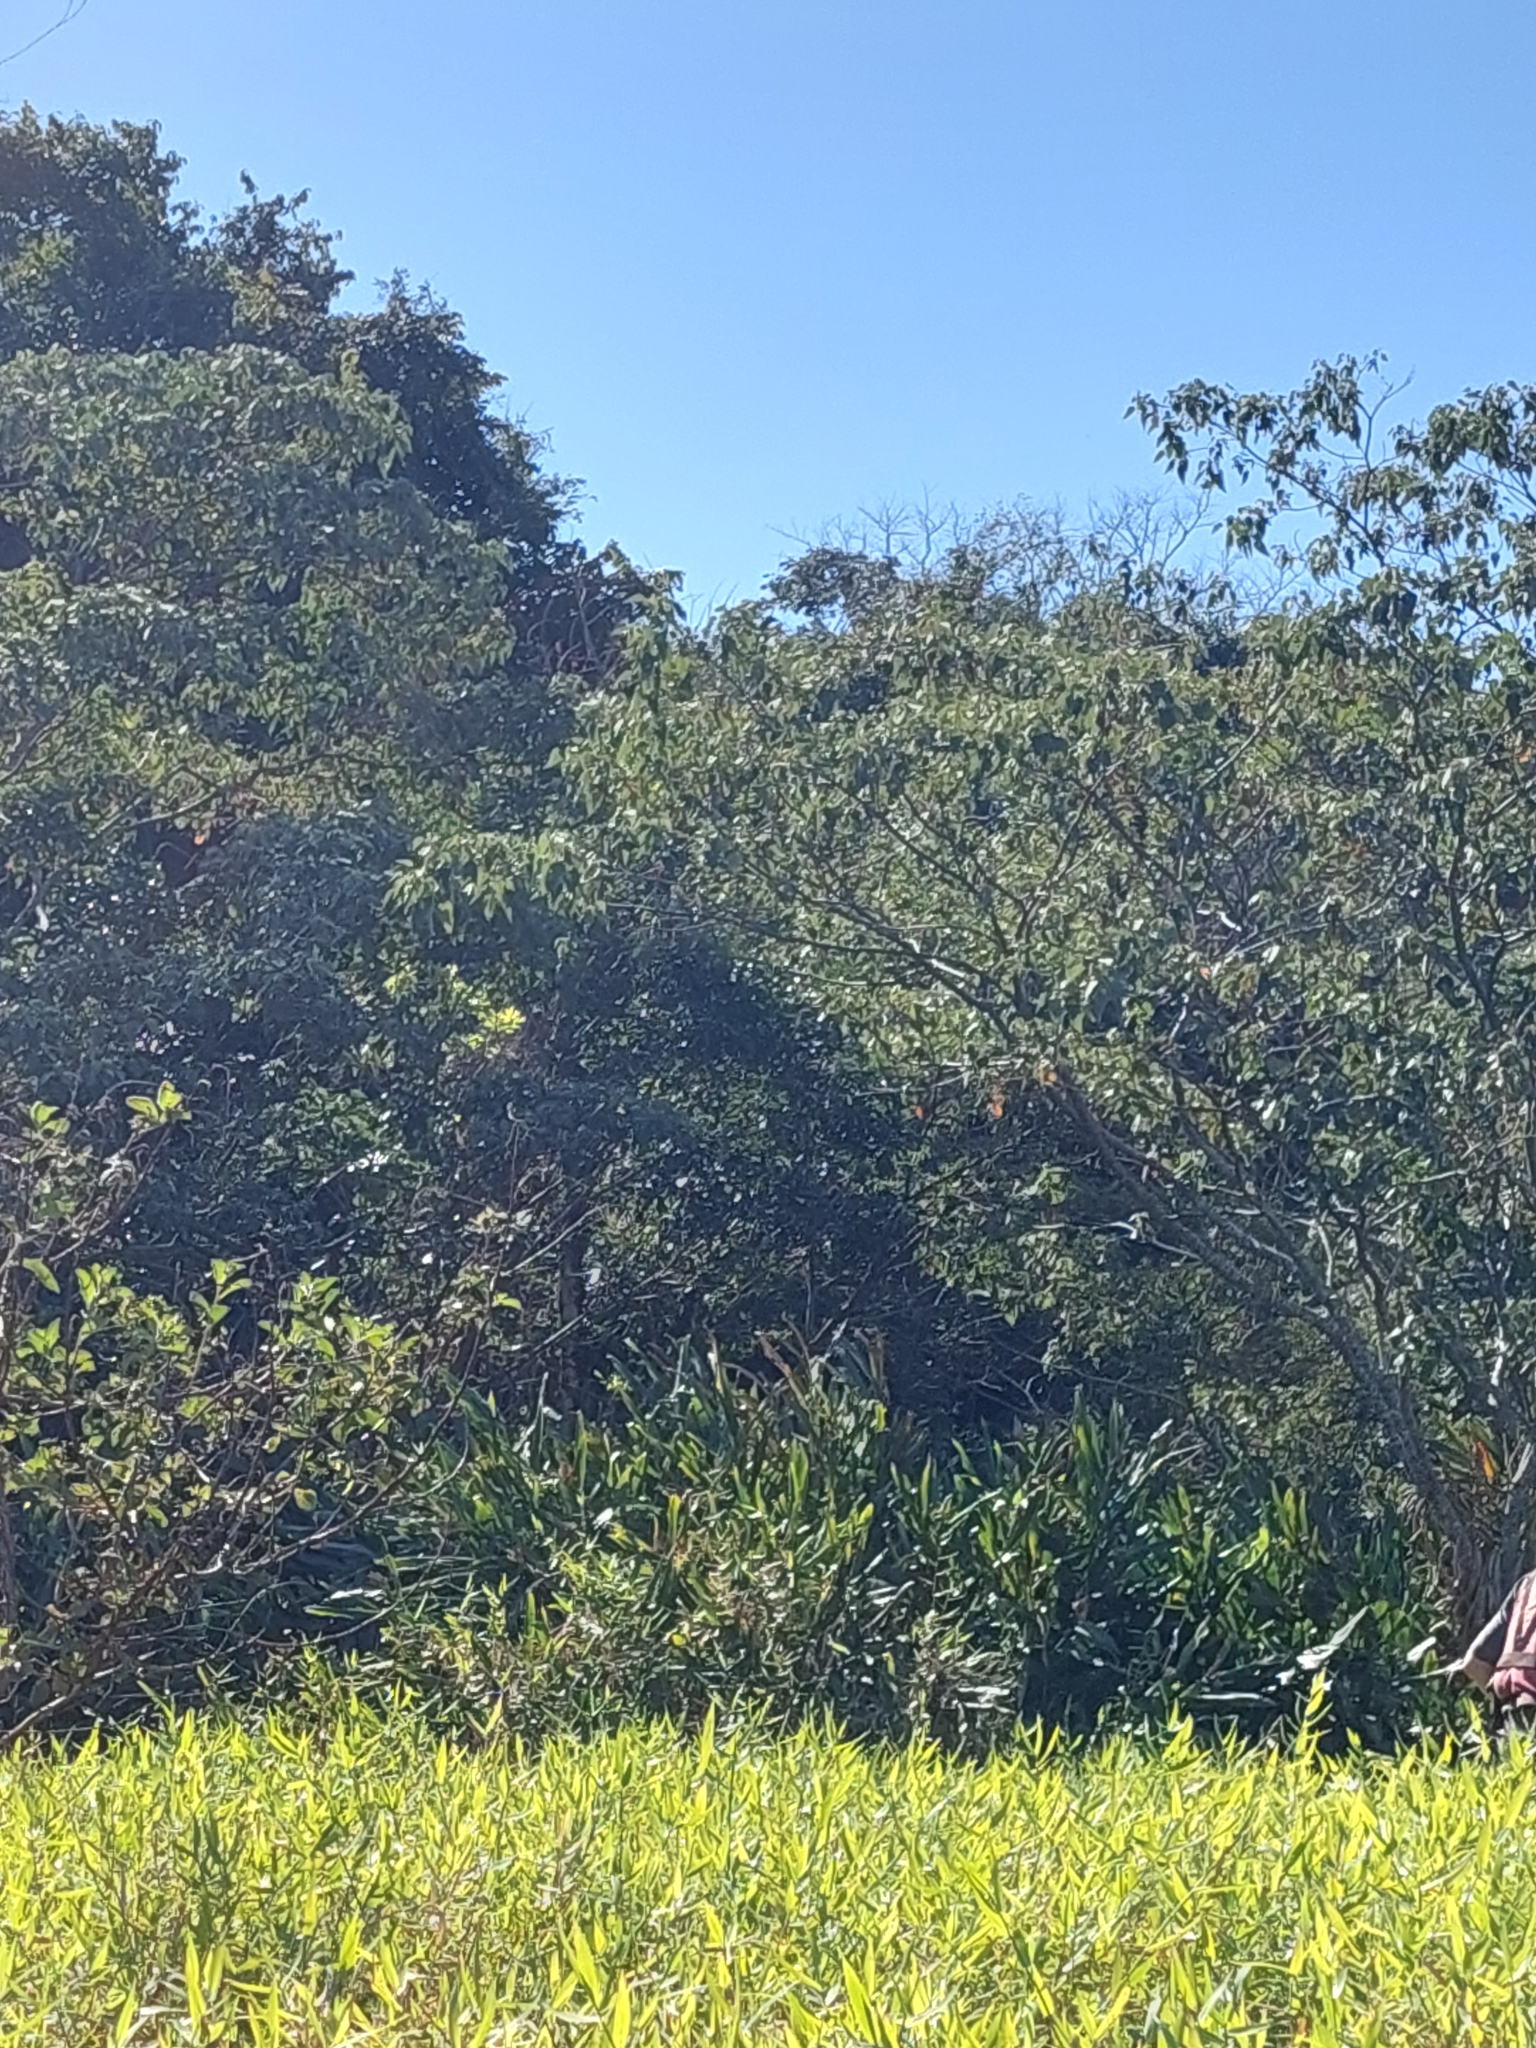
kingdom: Plantae
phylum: Tracheophyta
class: Liliopsida
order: Zingiberales
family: Zingiberaceae
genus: Hedychium
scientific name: Hedychium coronarium
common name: White garland-lily
